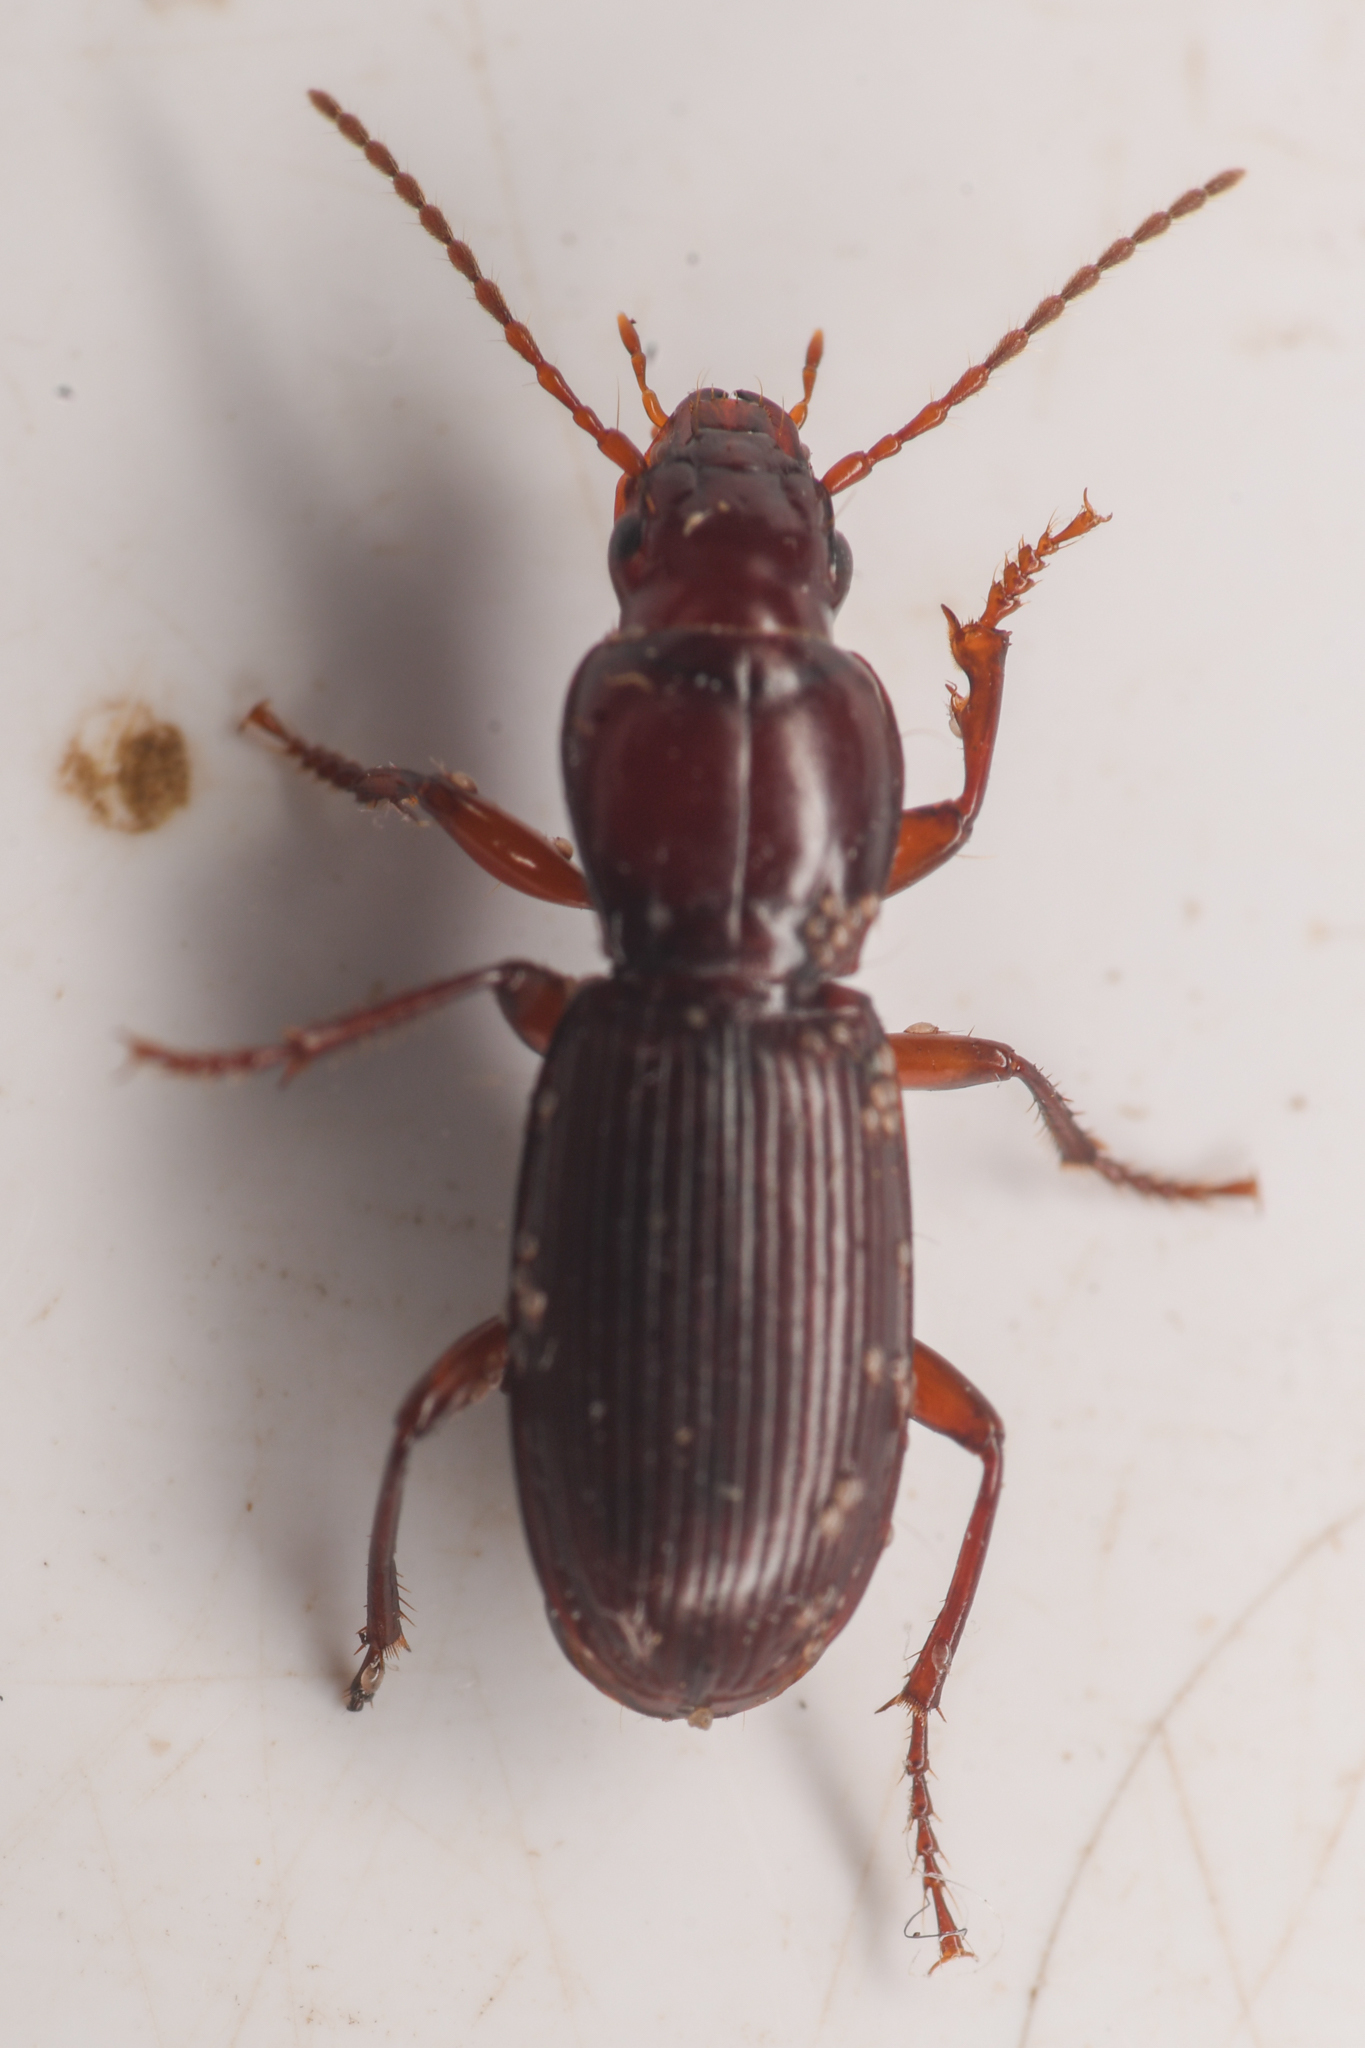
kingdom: Animalia
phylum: Arthropoda
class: Insecta
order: Coleoptera
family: Carabidae
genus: Pterostichus
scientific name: Pterostichus angustus
